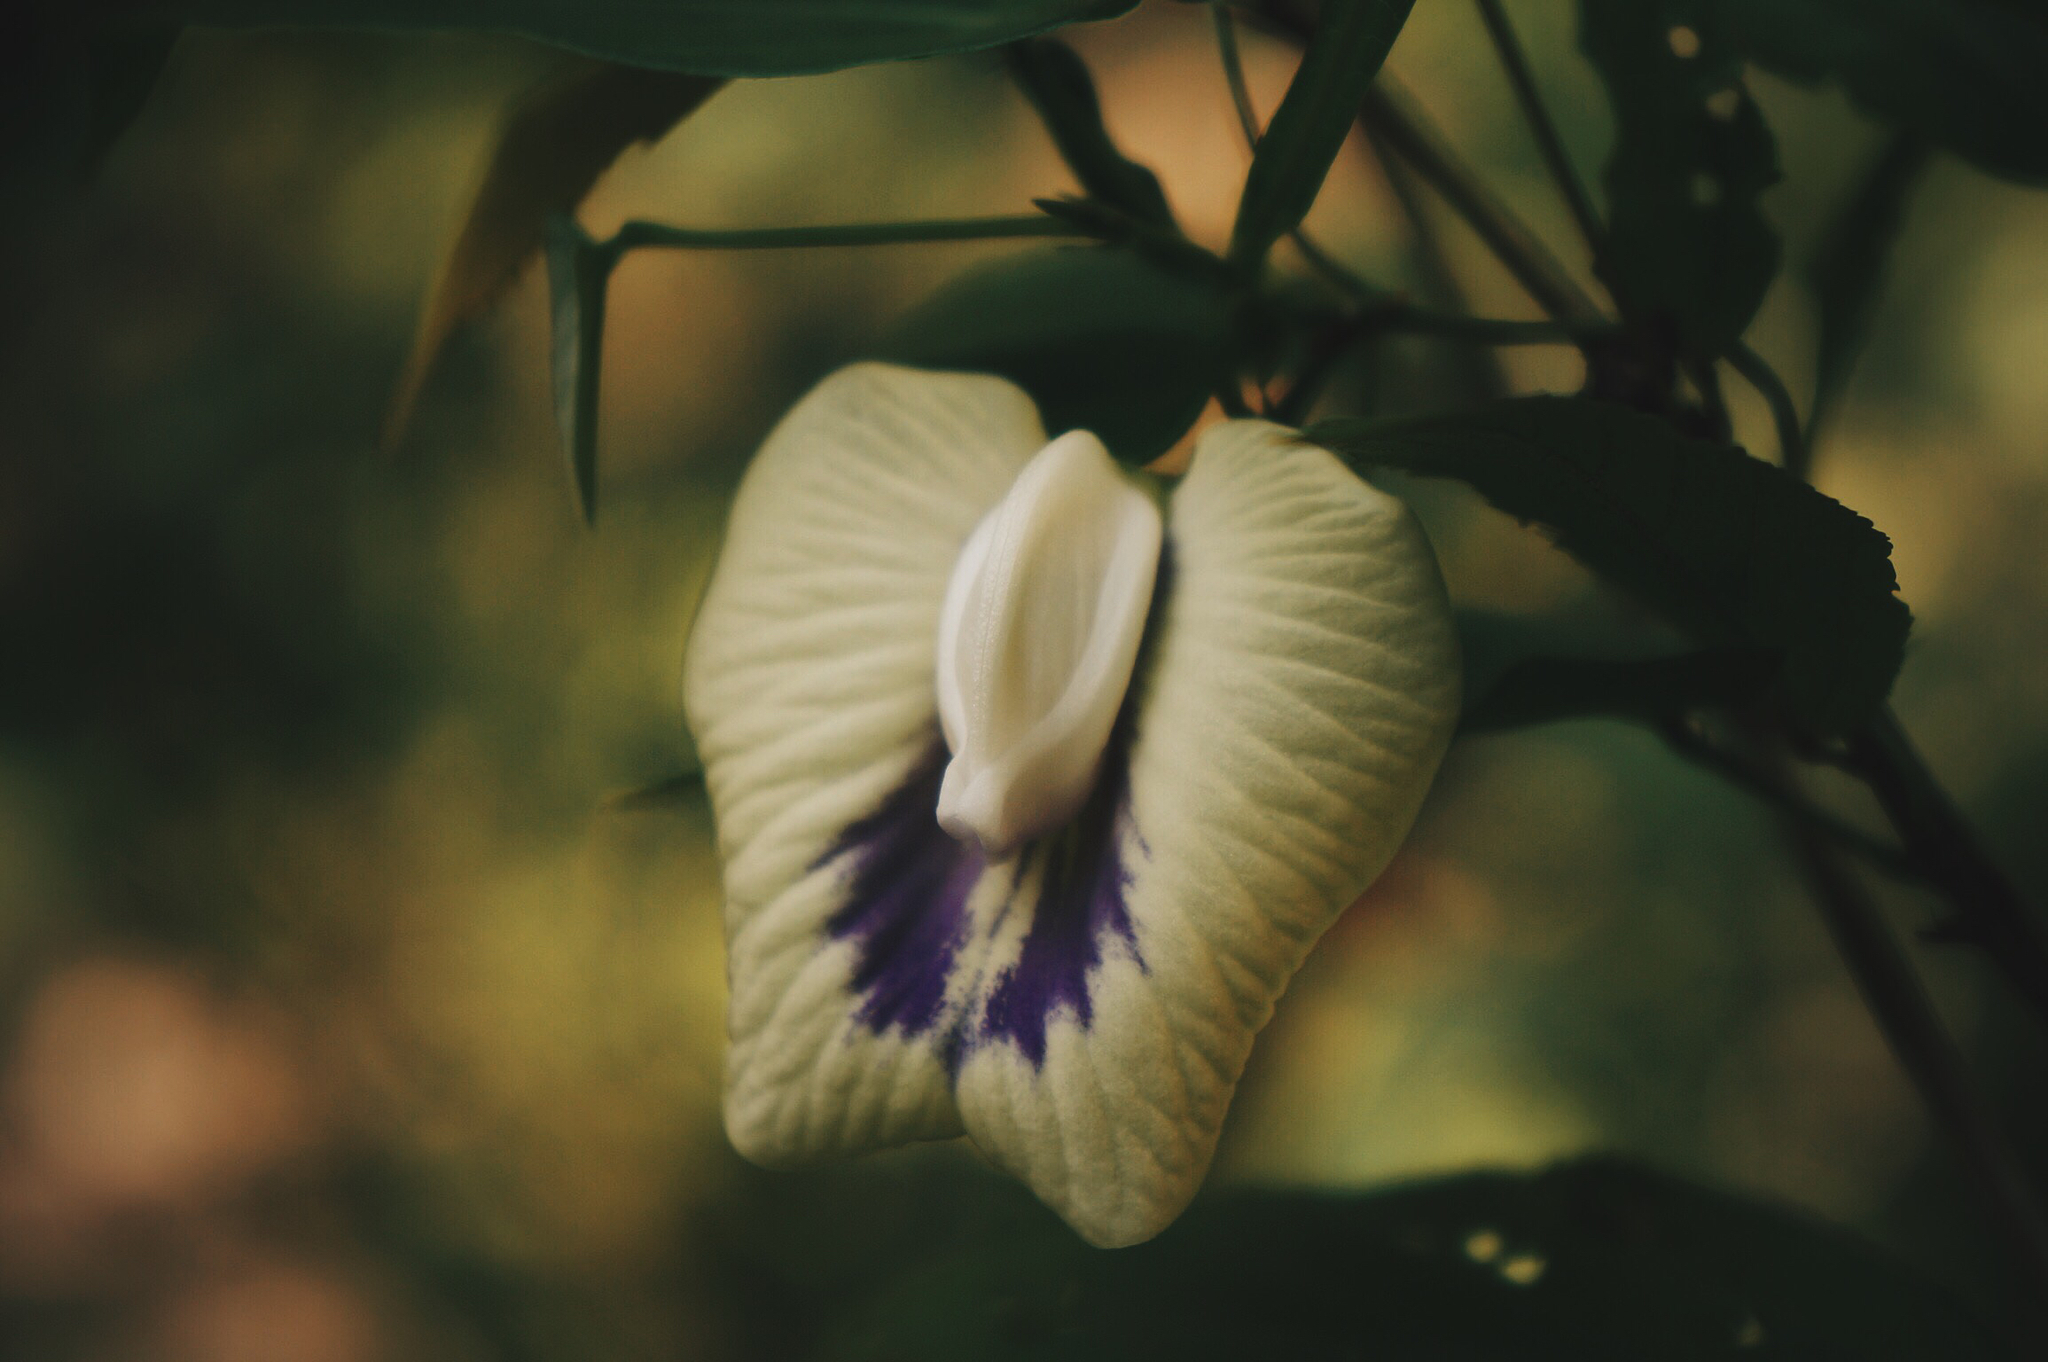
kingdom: Plantae
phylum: Tracheophyta
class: Magnoliopsida
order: Fabales
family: Fabaceae
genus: Centrosema
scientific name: Centrosema sagittatum
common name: Arrowleaf butterfly pea
